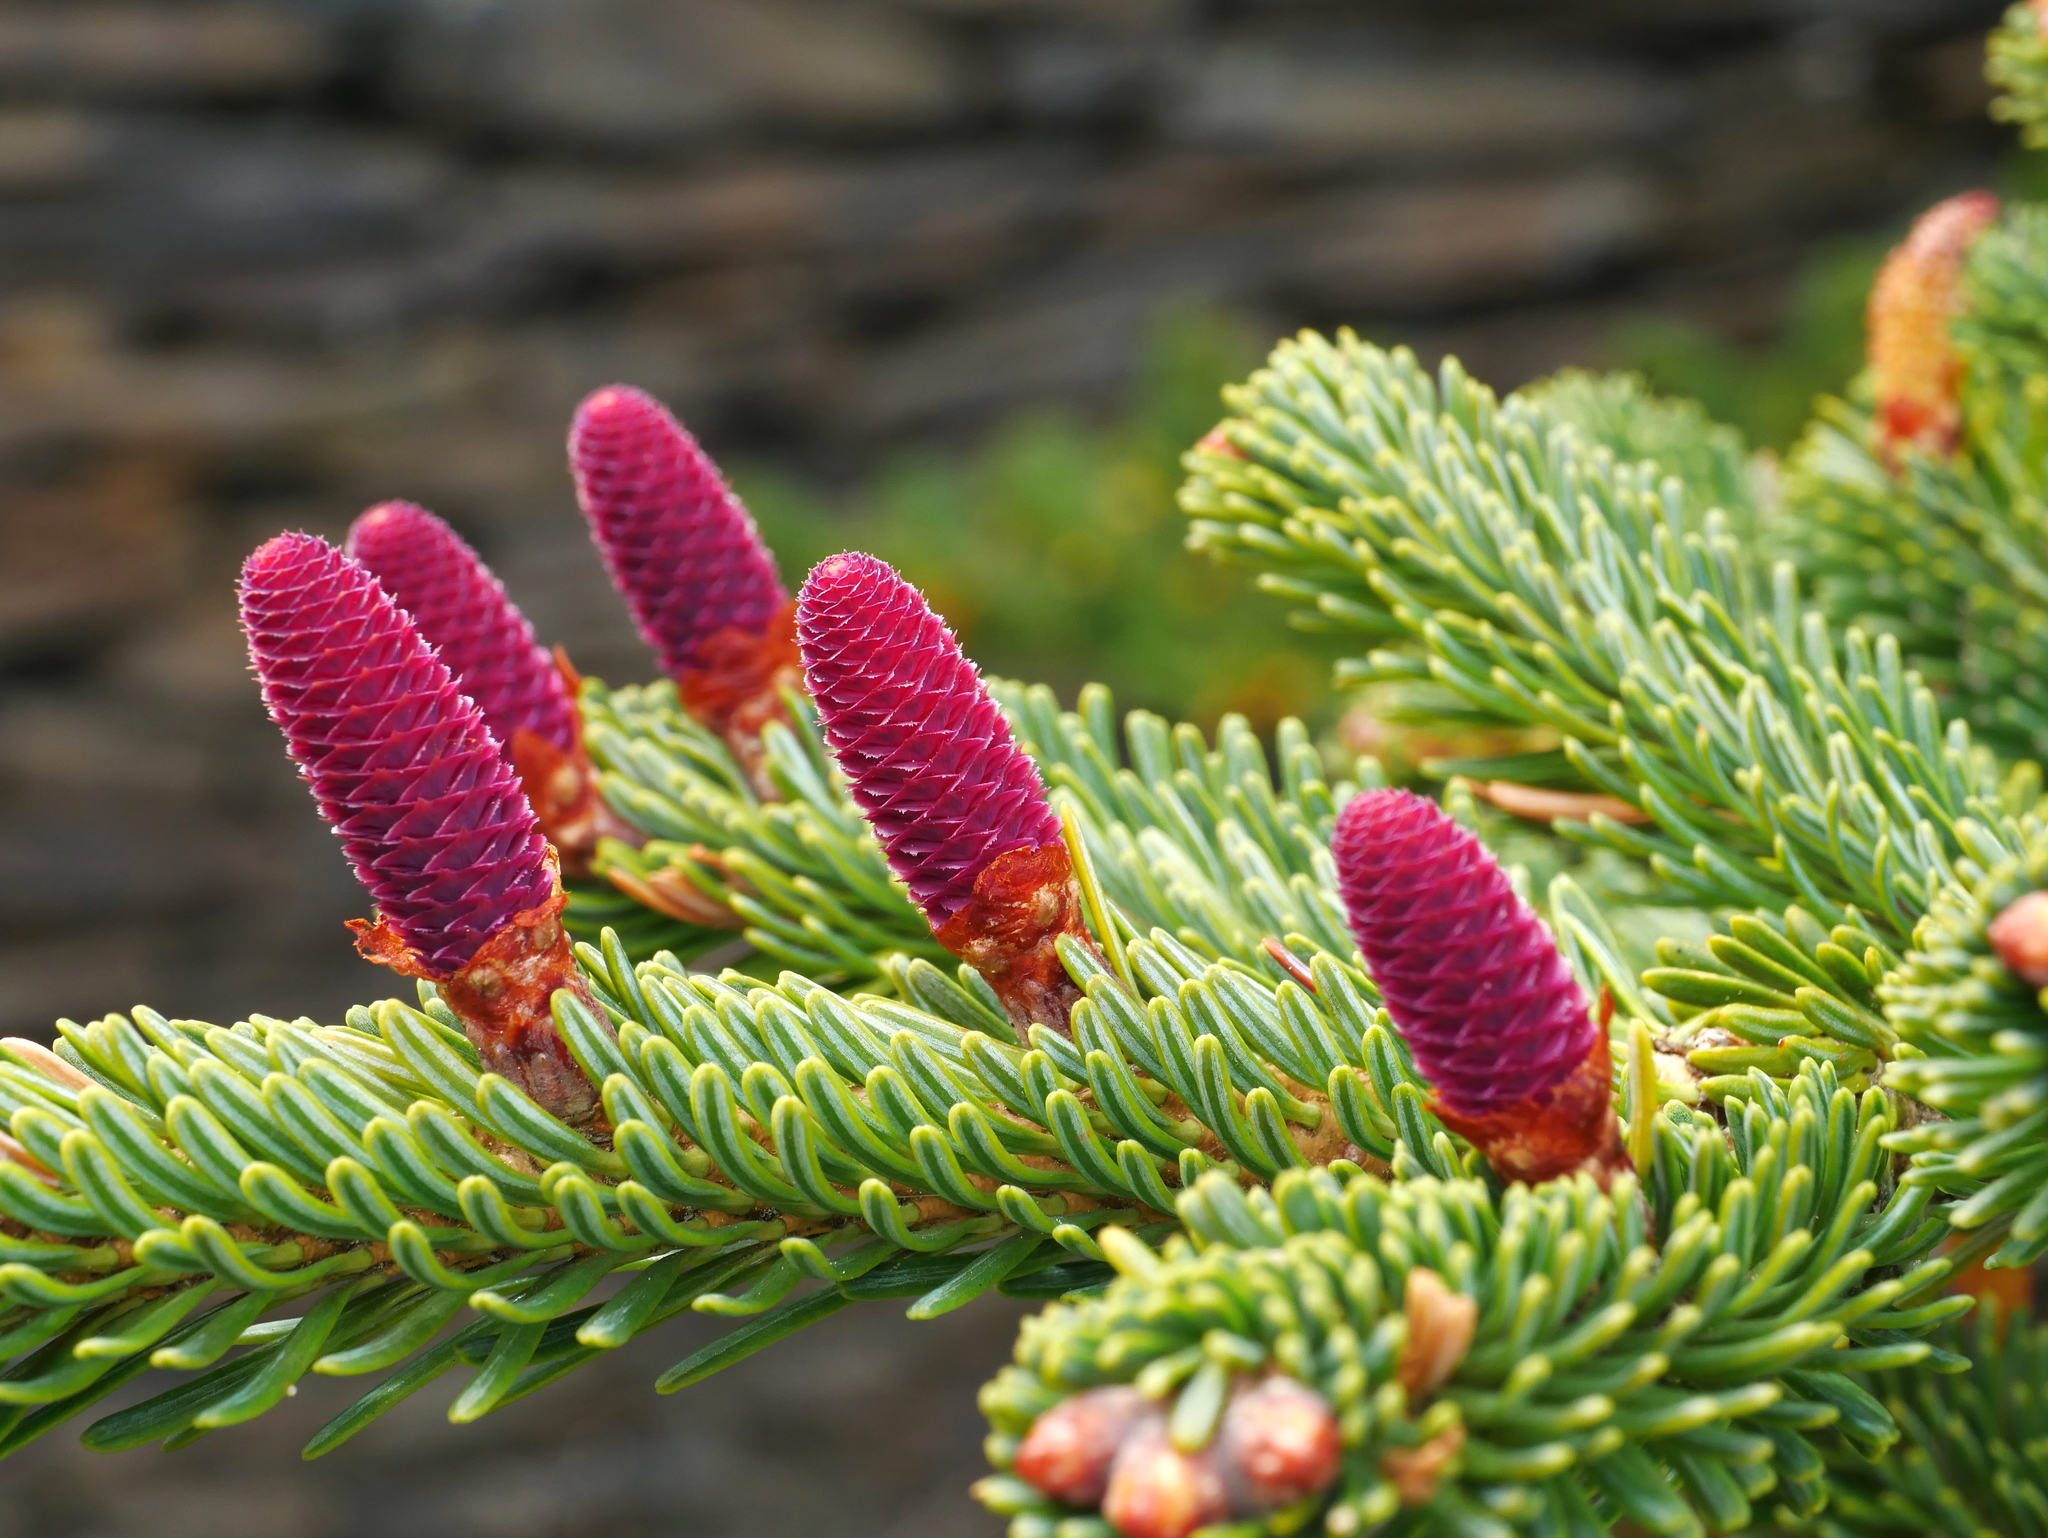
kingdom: Plantae
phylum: Tracheophyta
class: Pinopsida
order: Pinales
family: Pinaceae
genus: Abies
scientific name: Abies kawakamii
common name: Taiwan fir
